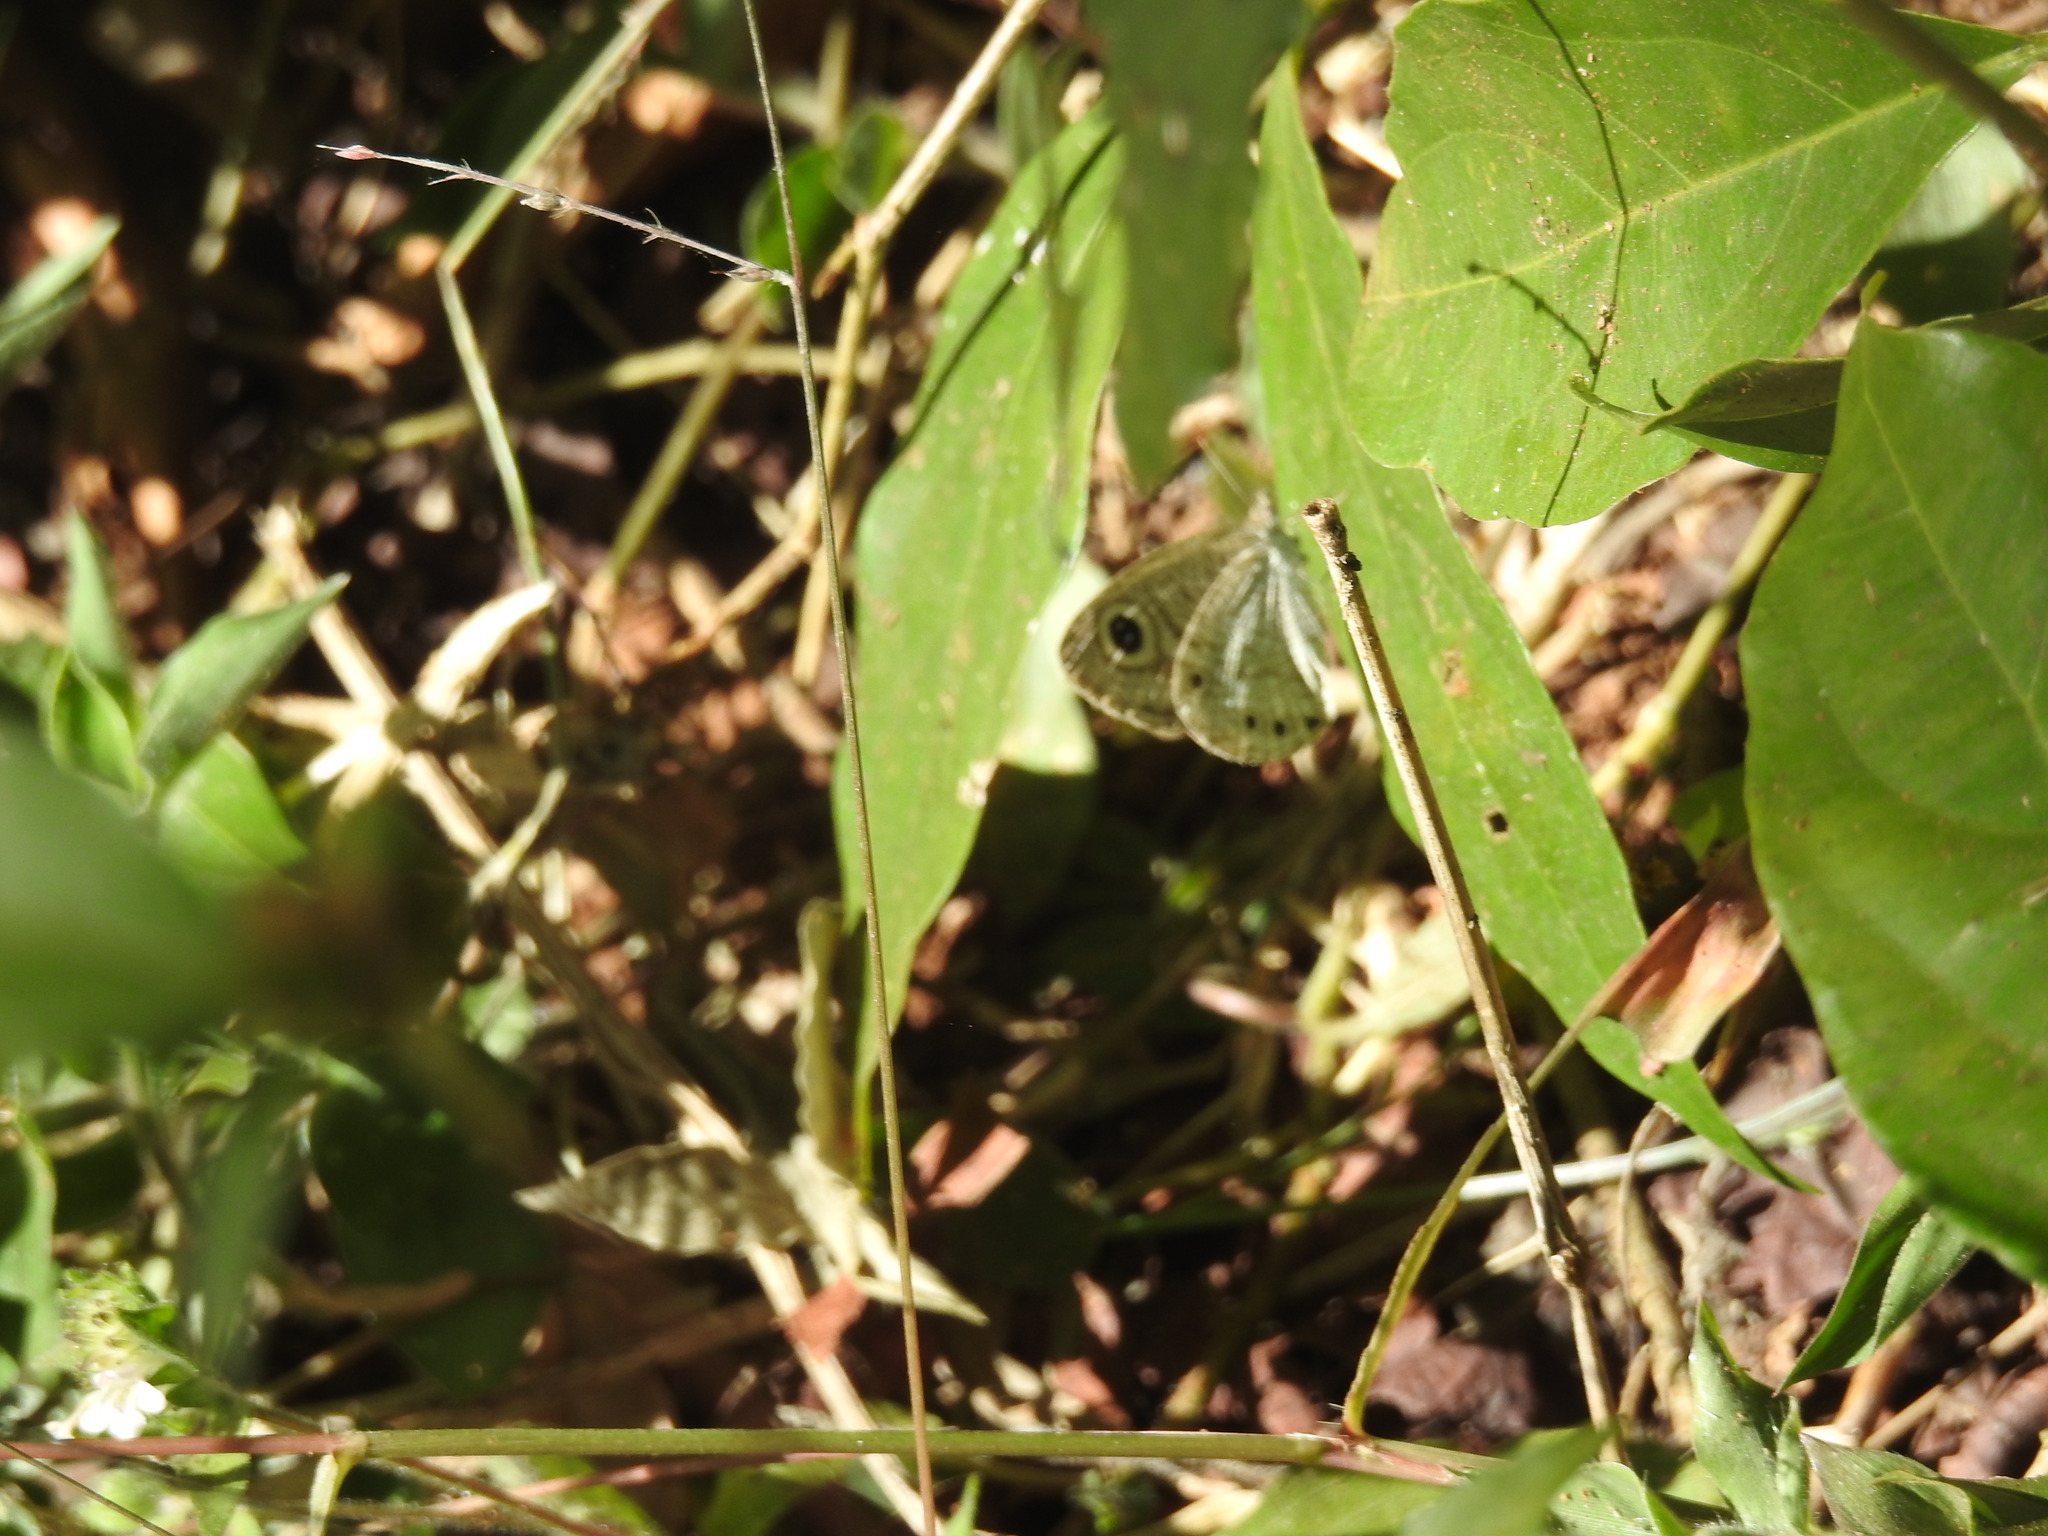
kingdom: Animalia
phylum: Arthropoda
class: Insecta
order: Lepidoptera
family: Nymphalidae
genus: Ypthima
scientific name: Ypthima huebneri
